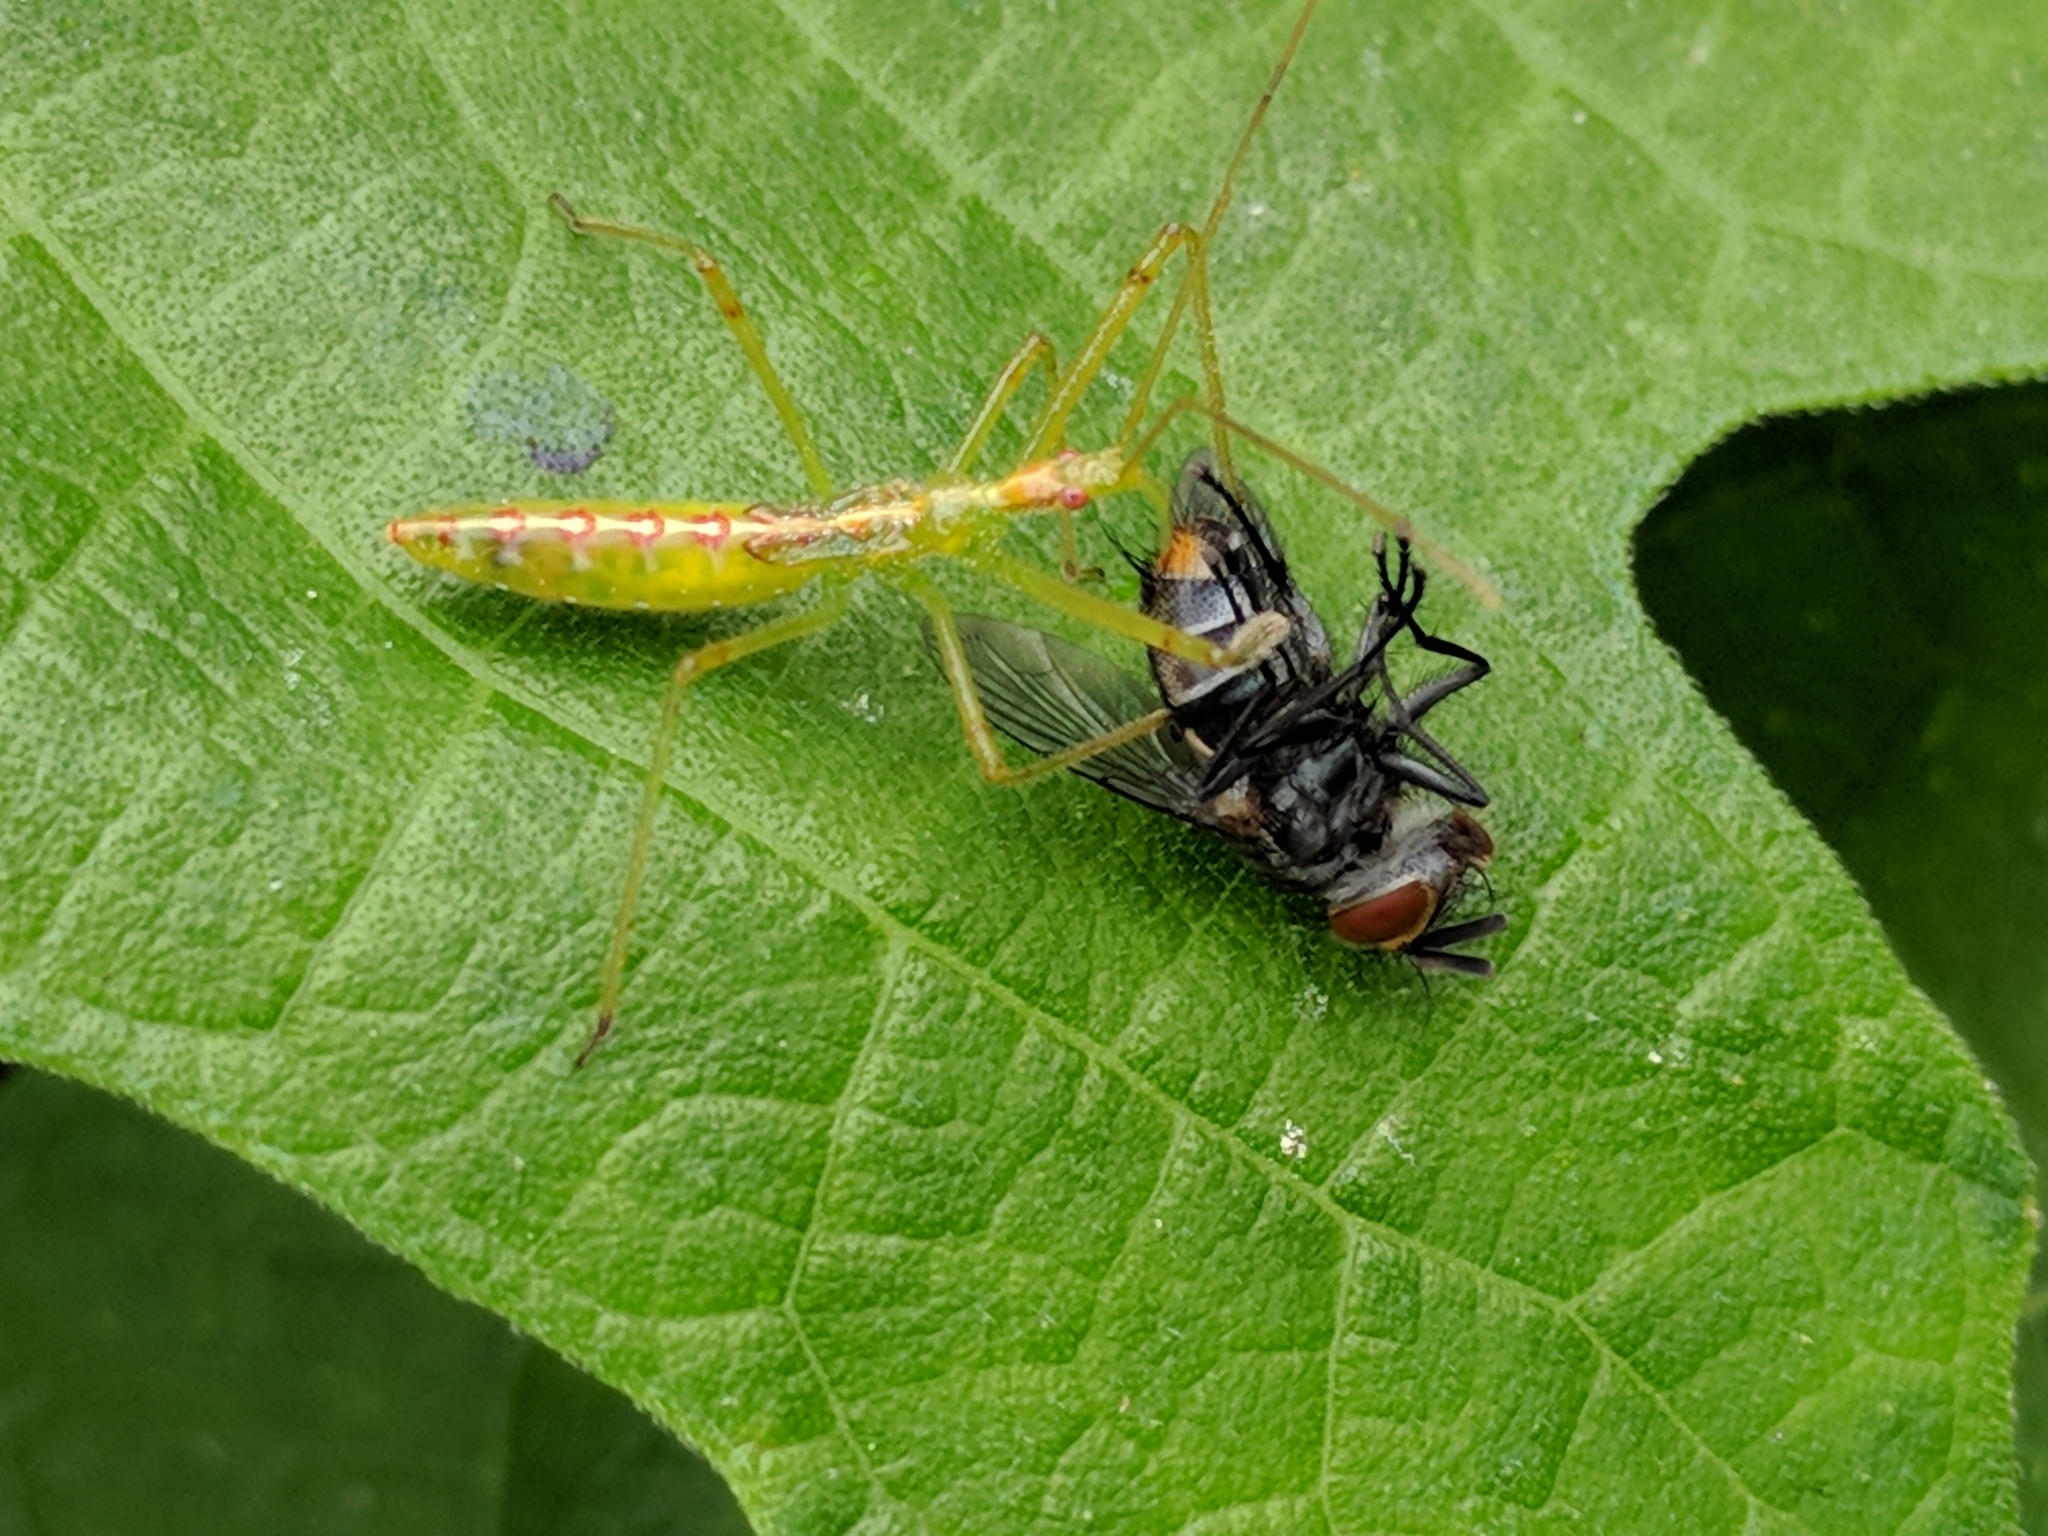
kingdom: Animalia
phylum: Arthropoda
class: Insecta
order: Hemiptera
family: Reduviidae
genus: Zelus
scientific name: Zelus luridus
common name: Pale green assassin bug
